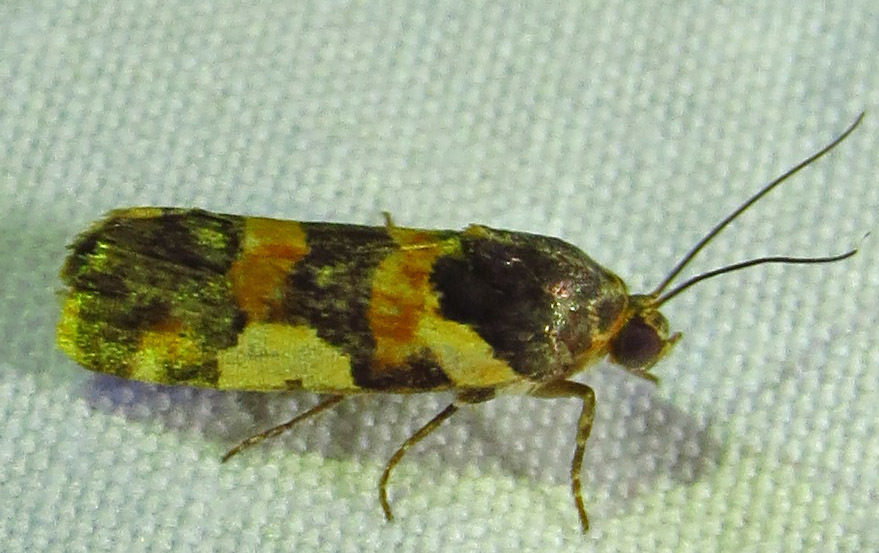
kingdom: Animalia
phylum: Arthropoda
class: Insecta
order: Lepidoptera
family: Noctuidae
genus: Acontia
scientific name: Acontia dama
